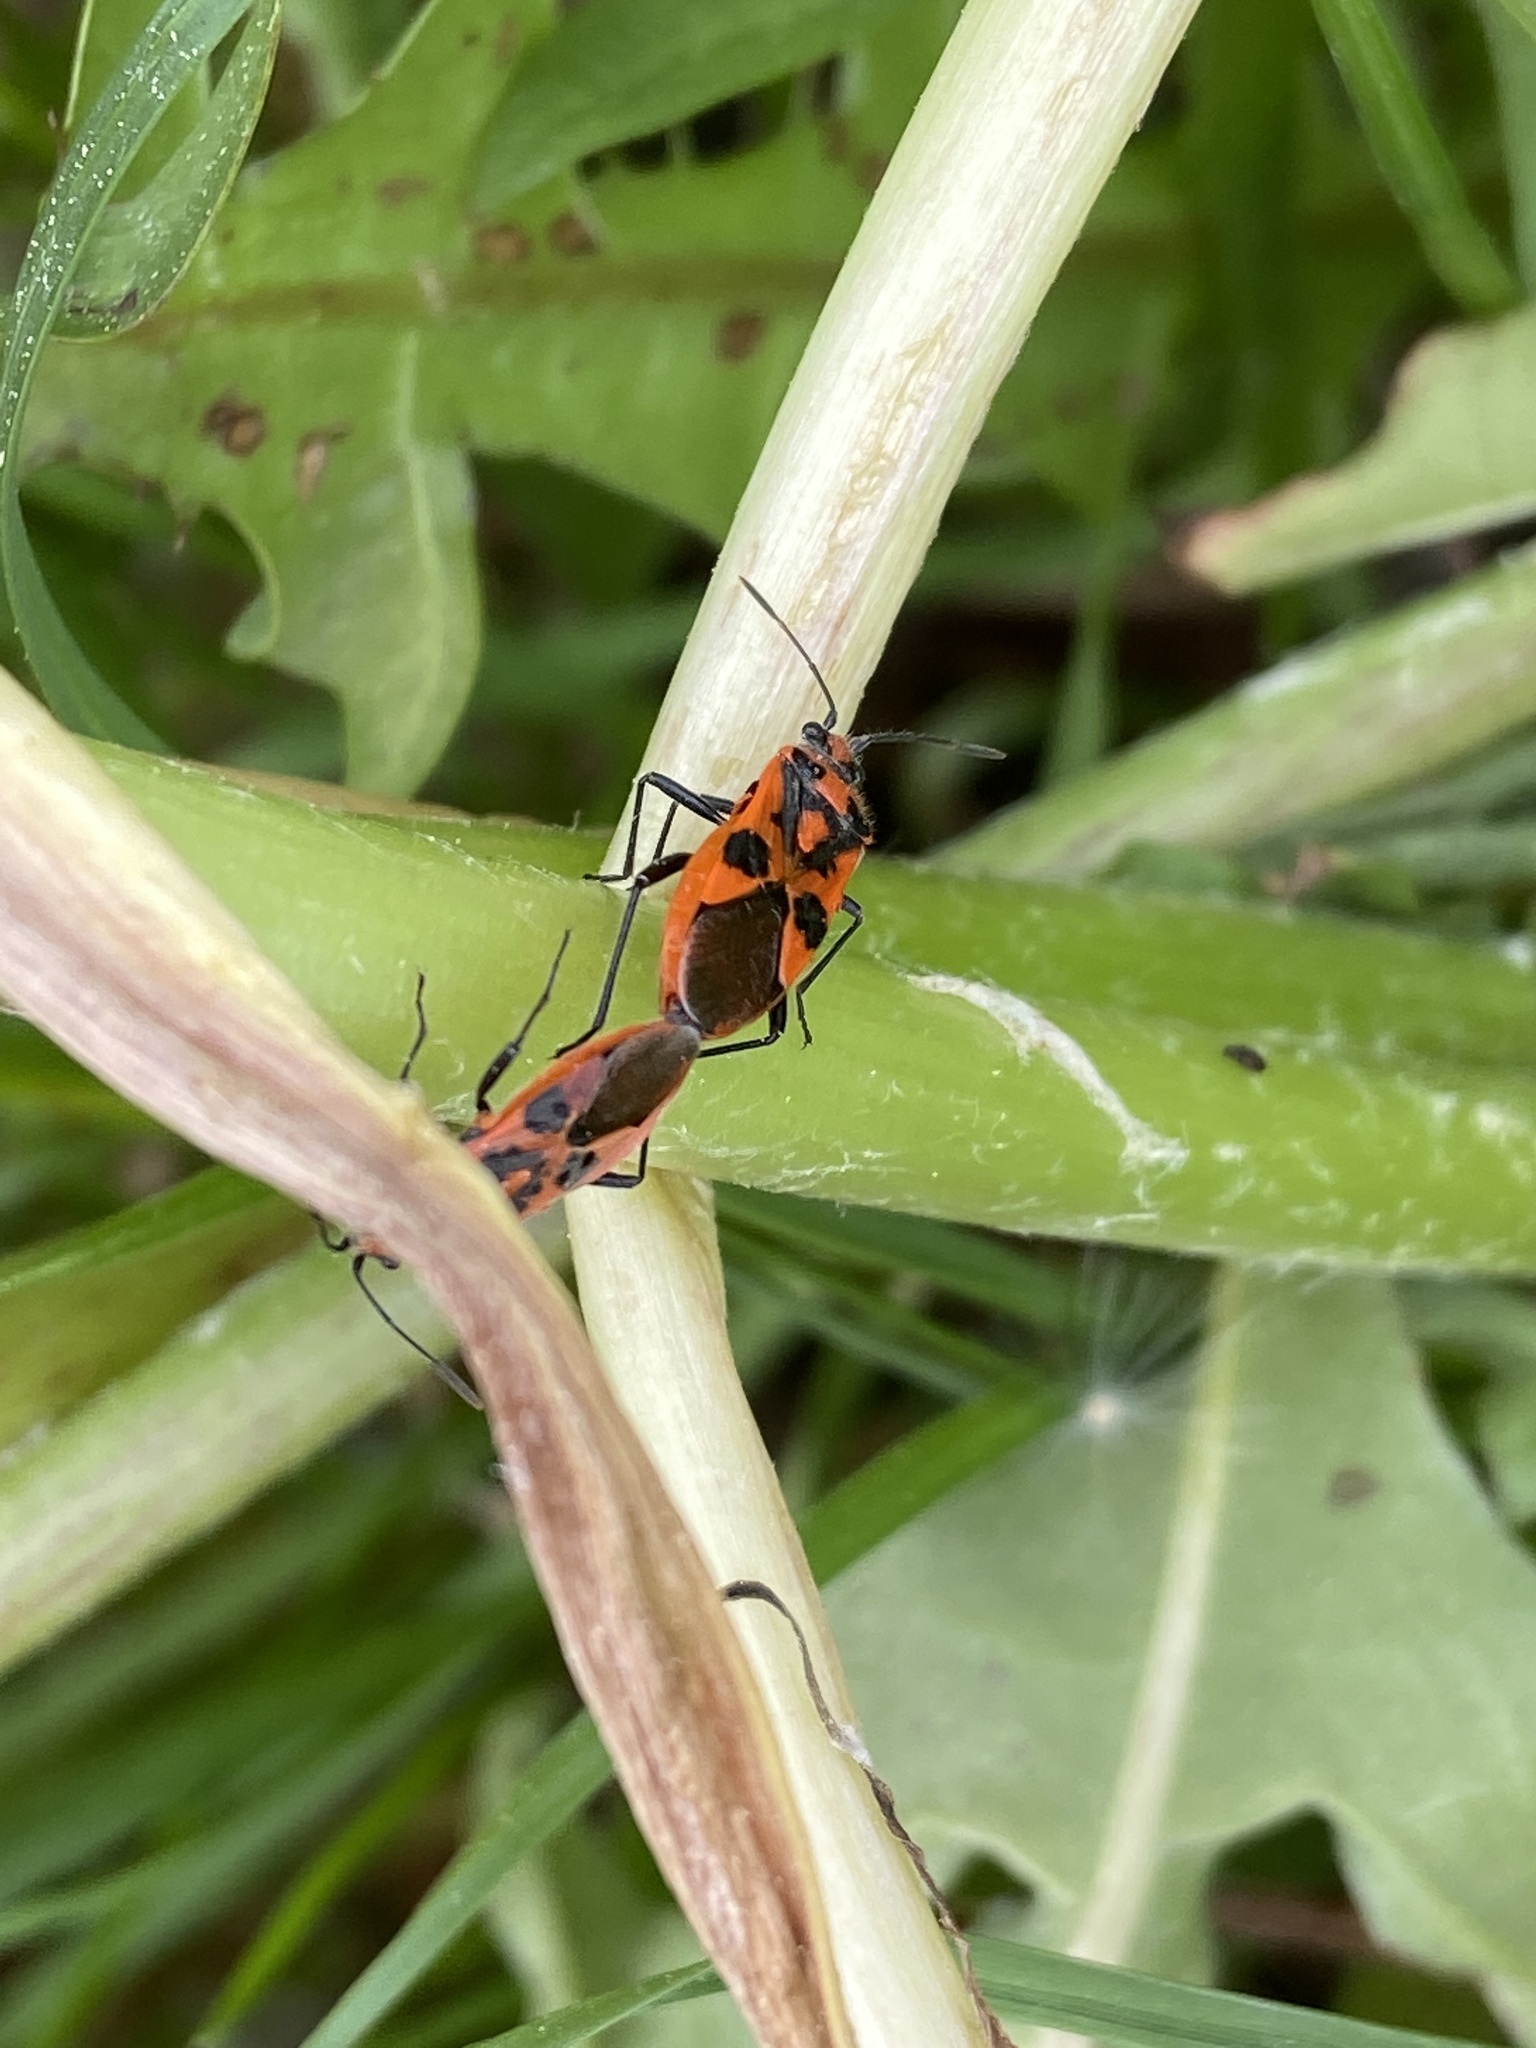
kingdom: Animalia
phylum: Arthropoda
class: Insecta
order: Hemiptera
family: Rhopalidae
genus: Corizus
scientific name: Corizus hyoscyami
